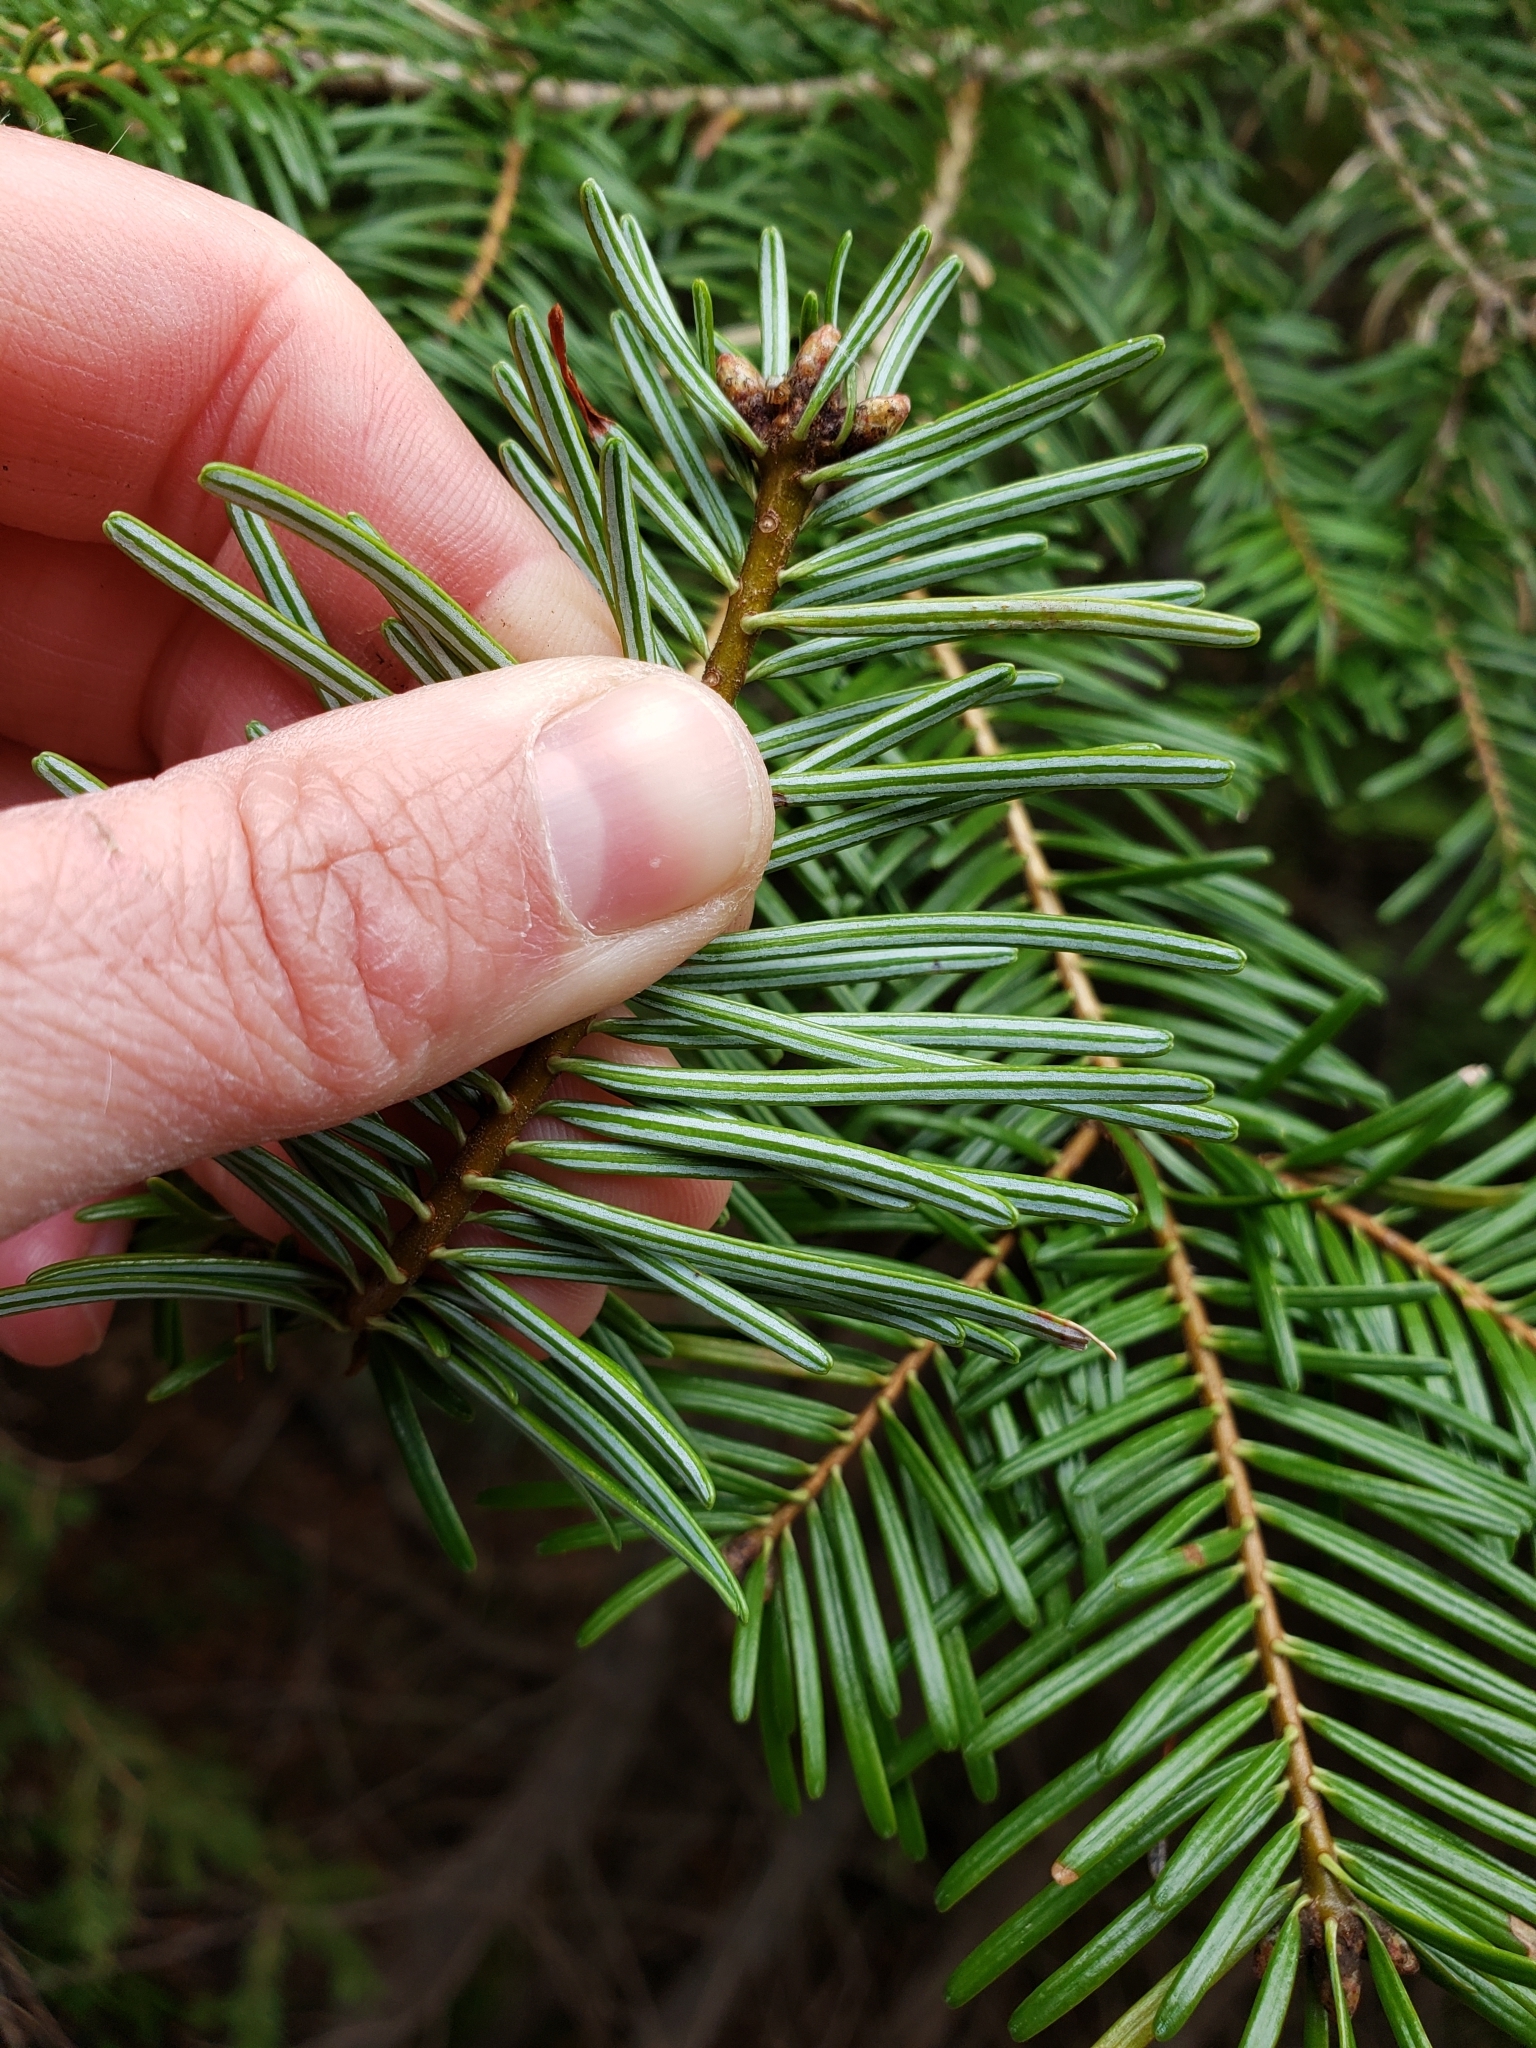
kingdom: Plantae
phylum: Tracheophyta
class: Pinopsida
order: Pinales
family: Pinaceae
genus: Abies
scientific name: Abies grandis
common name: Giant fir
